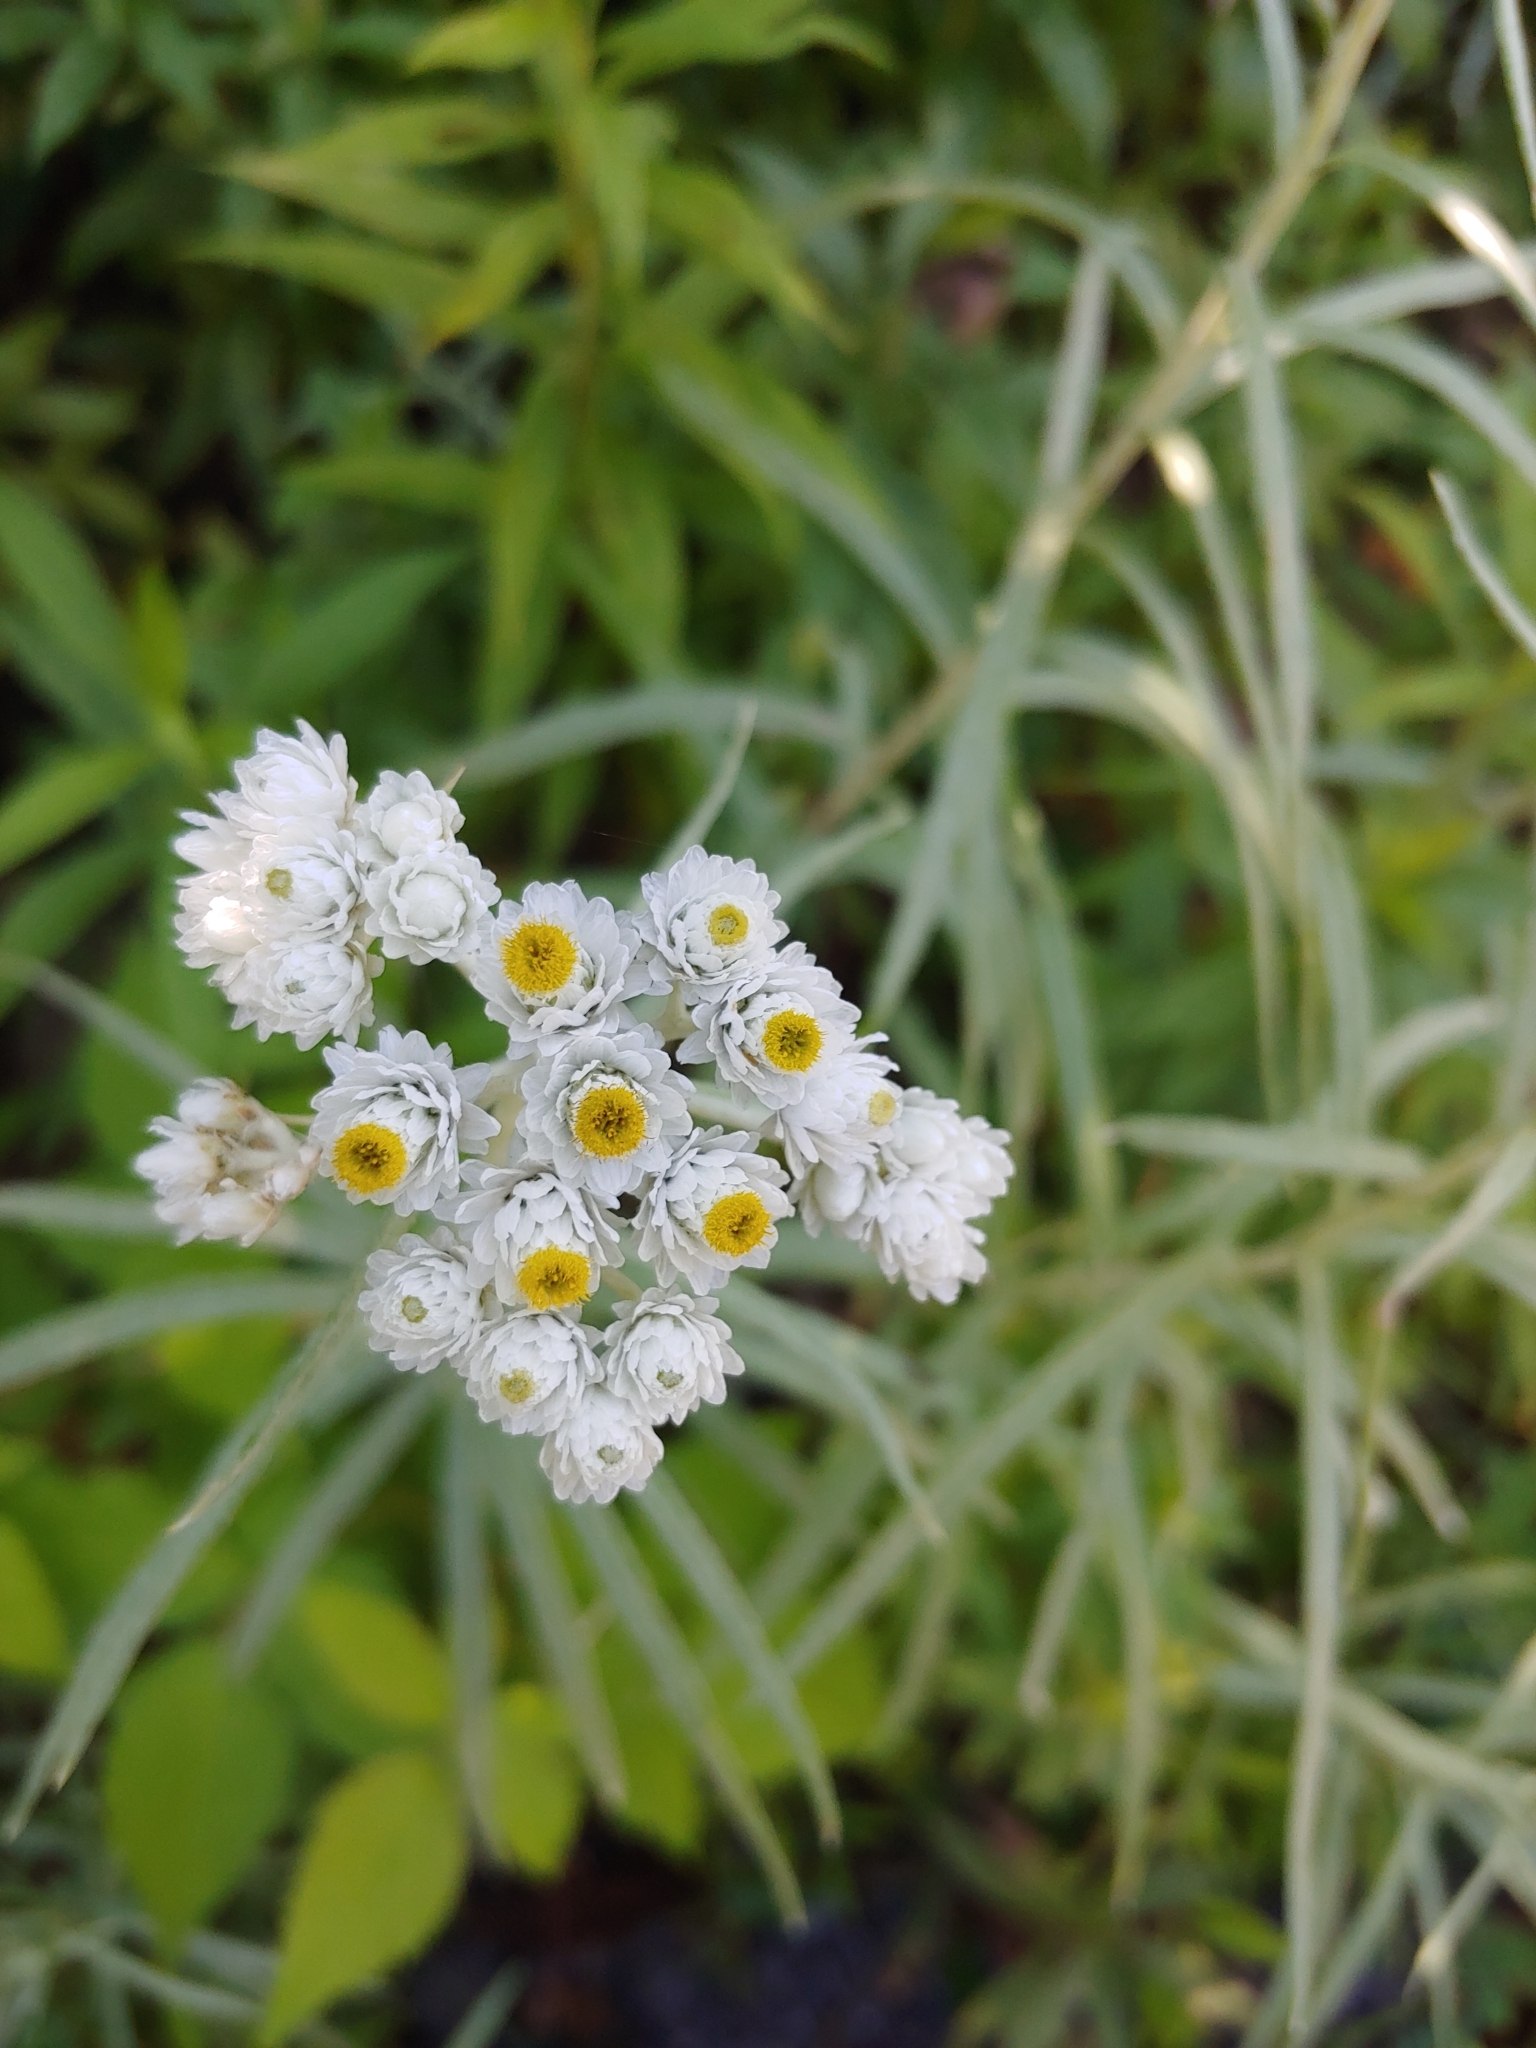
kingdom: Plantae
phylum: Tracheophyta
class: Magnoliopsida
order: Asterales
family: Asteraceae
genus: Anaphalis
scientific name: Anaphalis margaritacea
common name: Pearly everlasting
